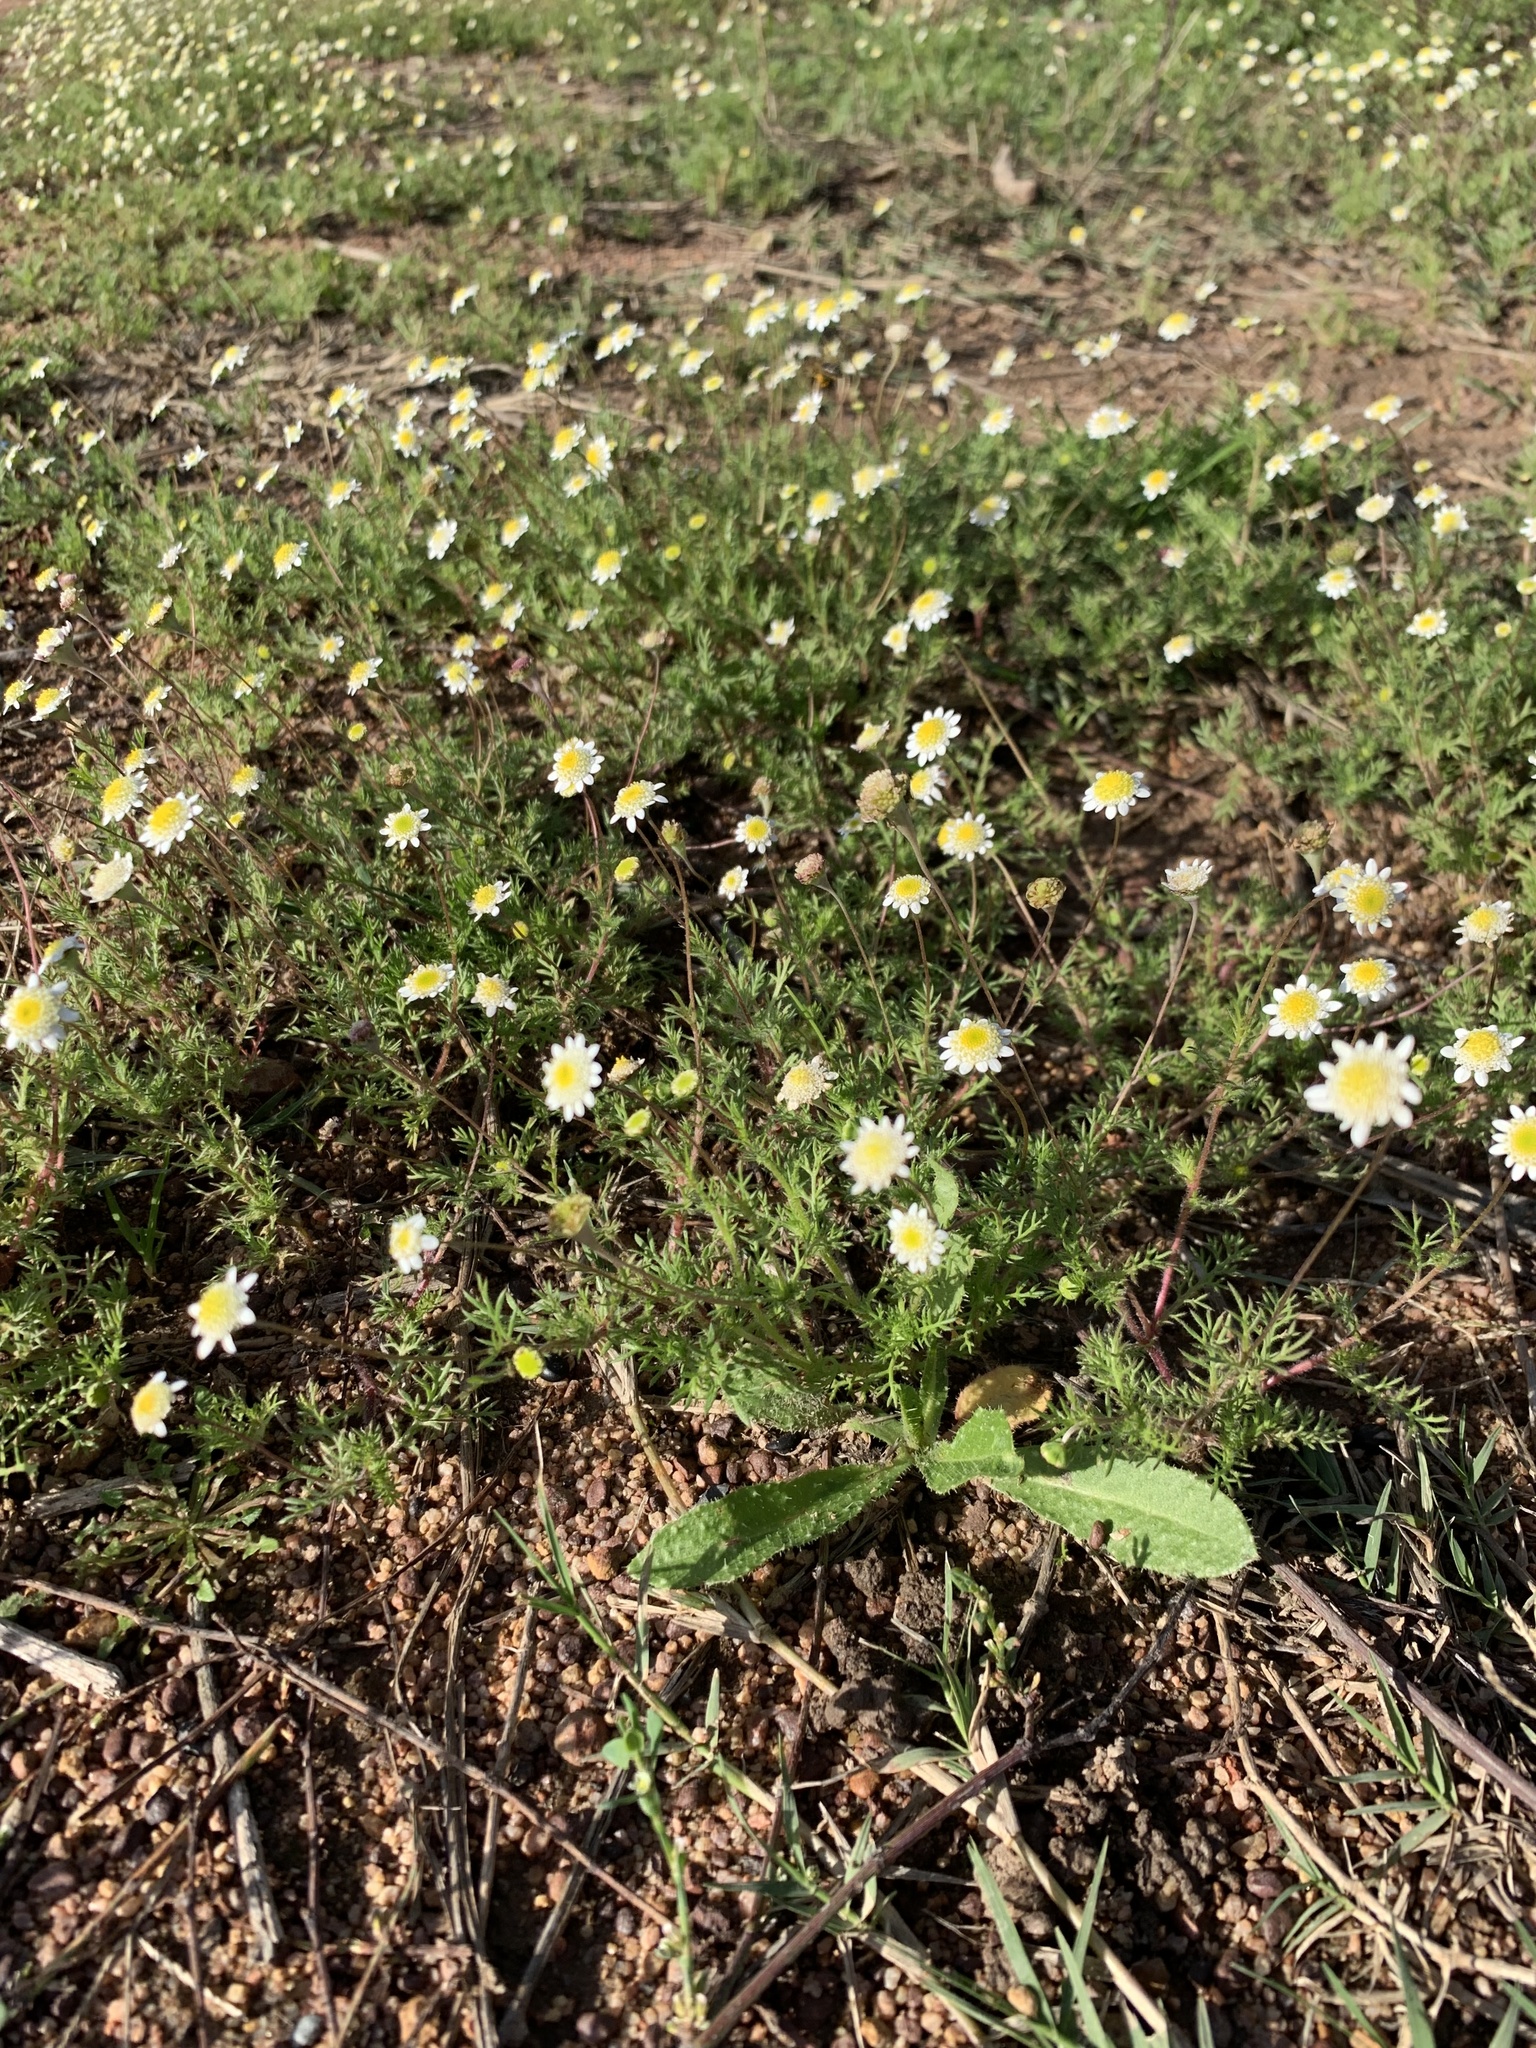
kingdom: Plantae
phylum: Tracheophyta
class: Magnoliopsida
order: Asterales
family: Asteraceae
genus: Cotula
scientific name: Cotula turbinata
